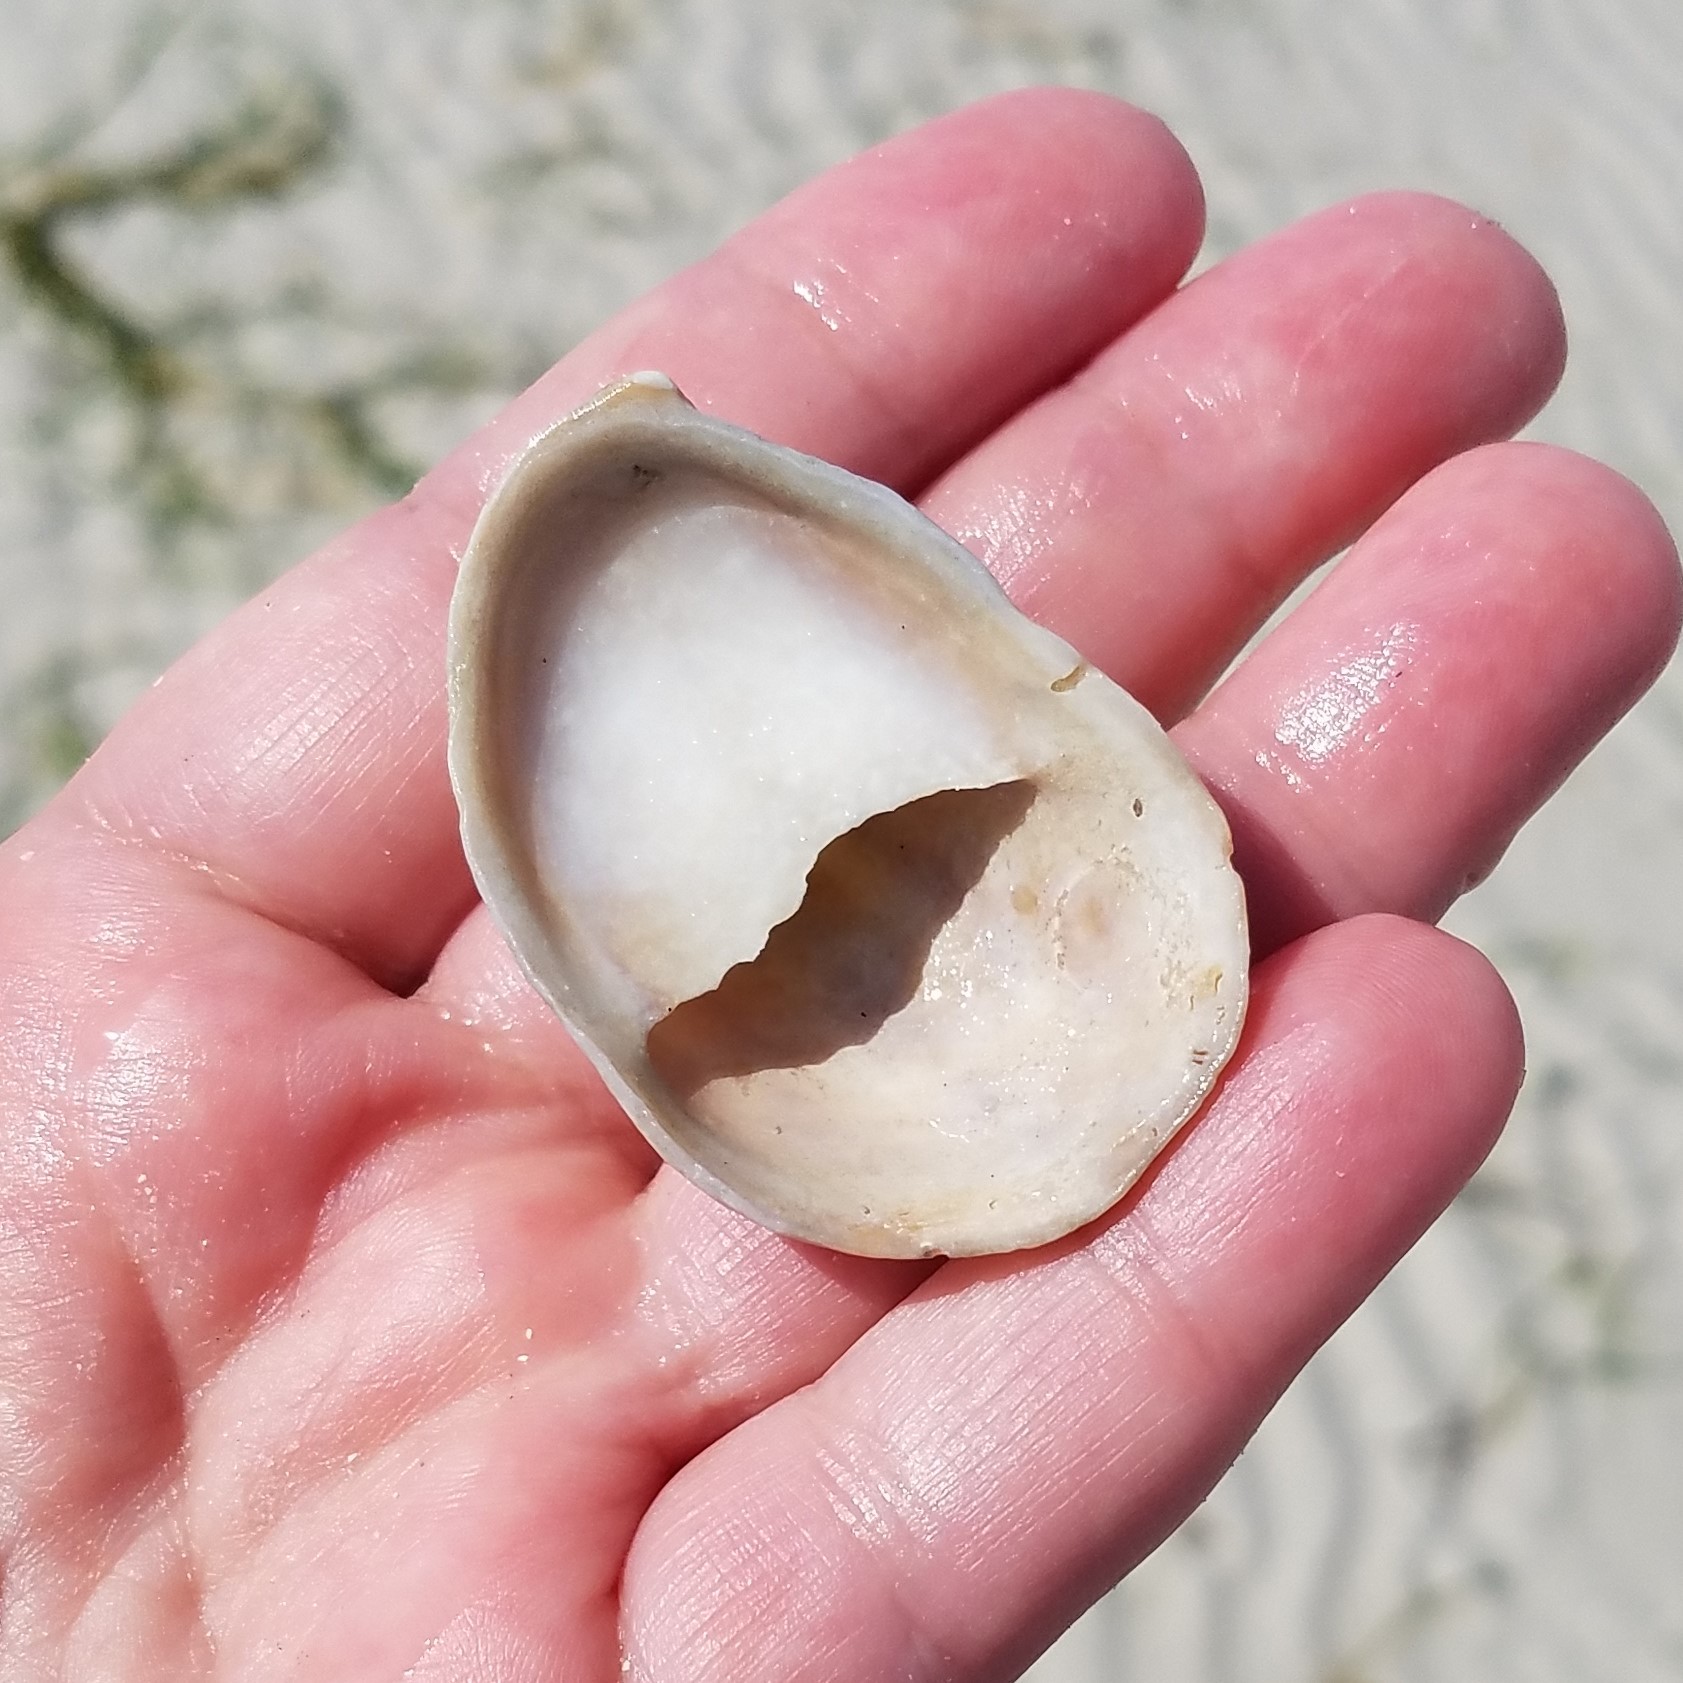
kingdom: Animalia
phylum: Mollusca
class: Gastropoda
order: Littorinimorpha
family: Calyptraeidae
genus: Crepidula
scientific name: Crepidula fornicata
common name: Slipper limpet
